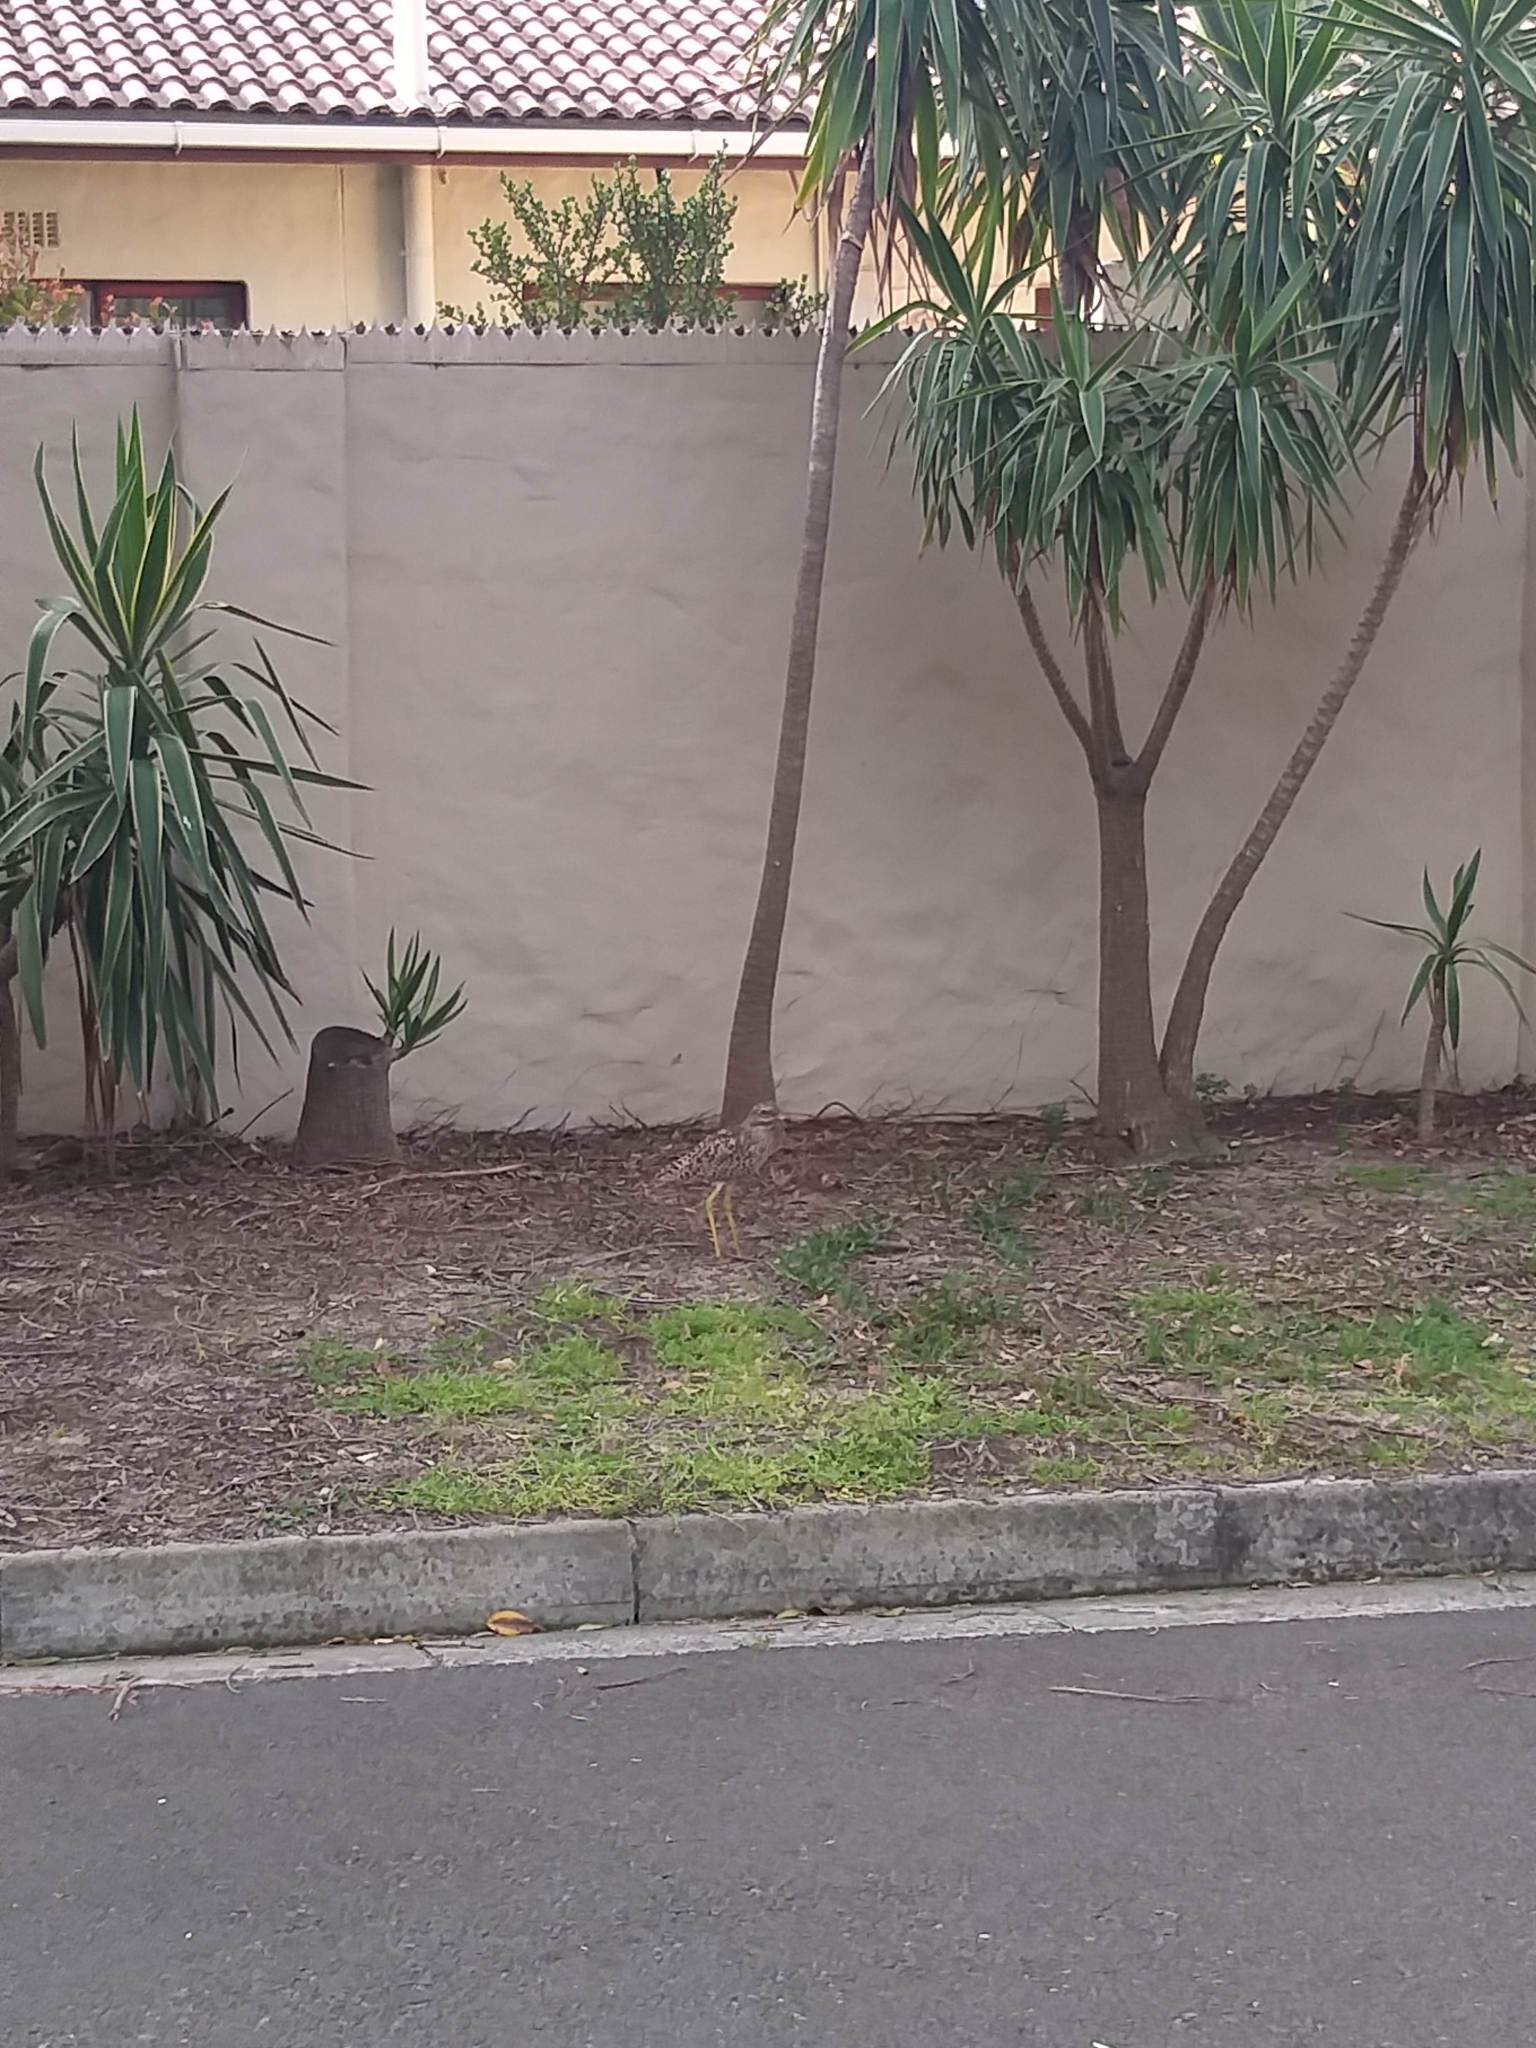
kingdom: Animalia
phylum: Chordata
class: Aves
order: Charadriiformes
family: Burhinidae
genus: Burhinus
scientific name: Burhinus capensis
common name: Spotted thick-knee
